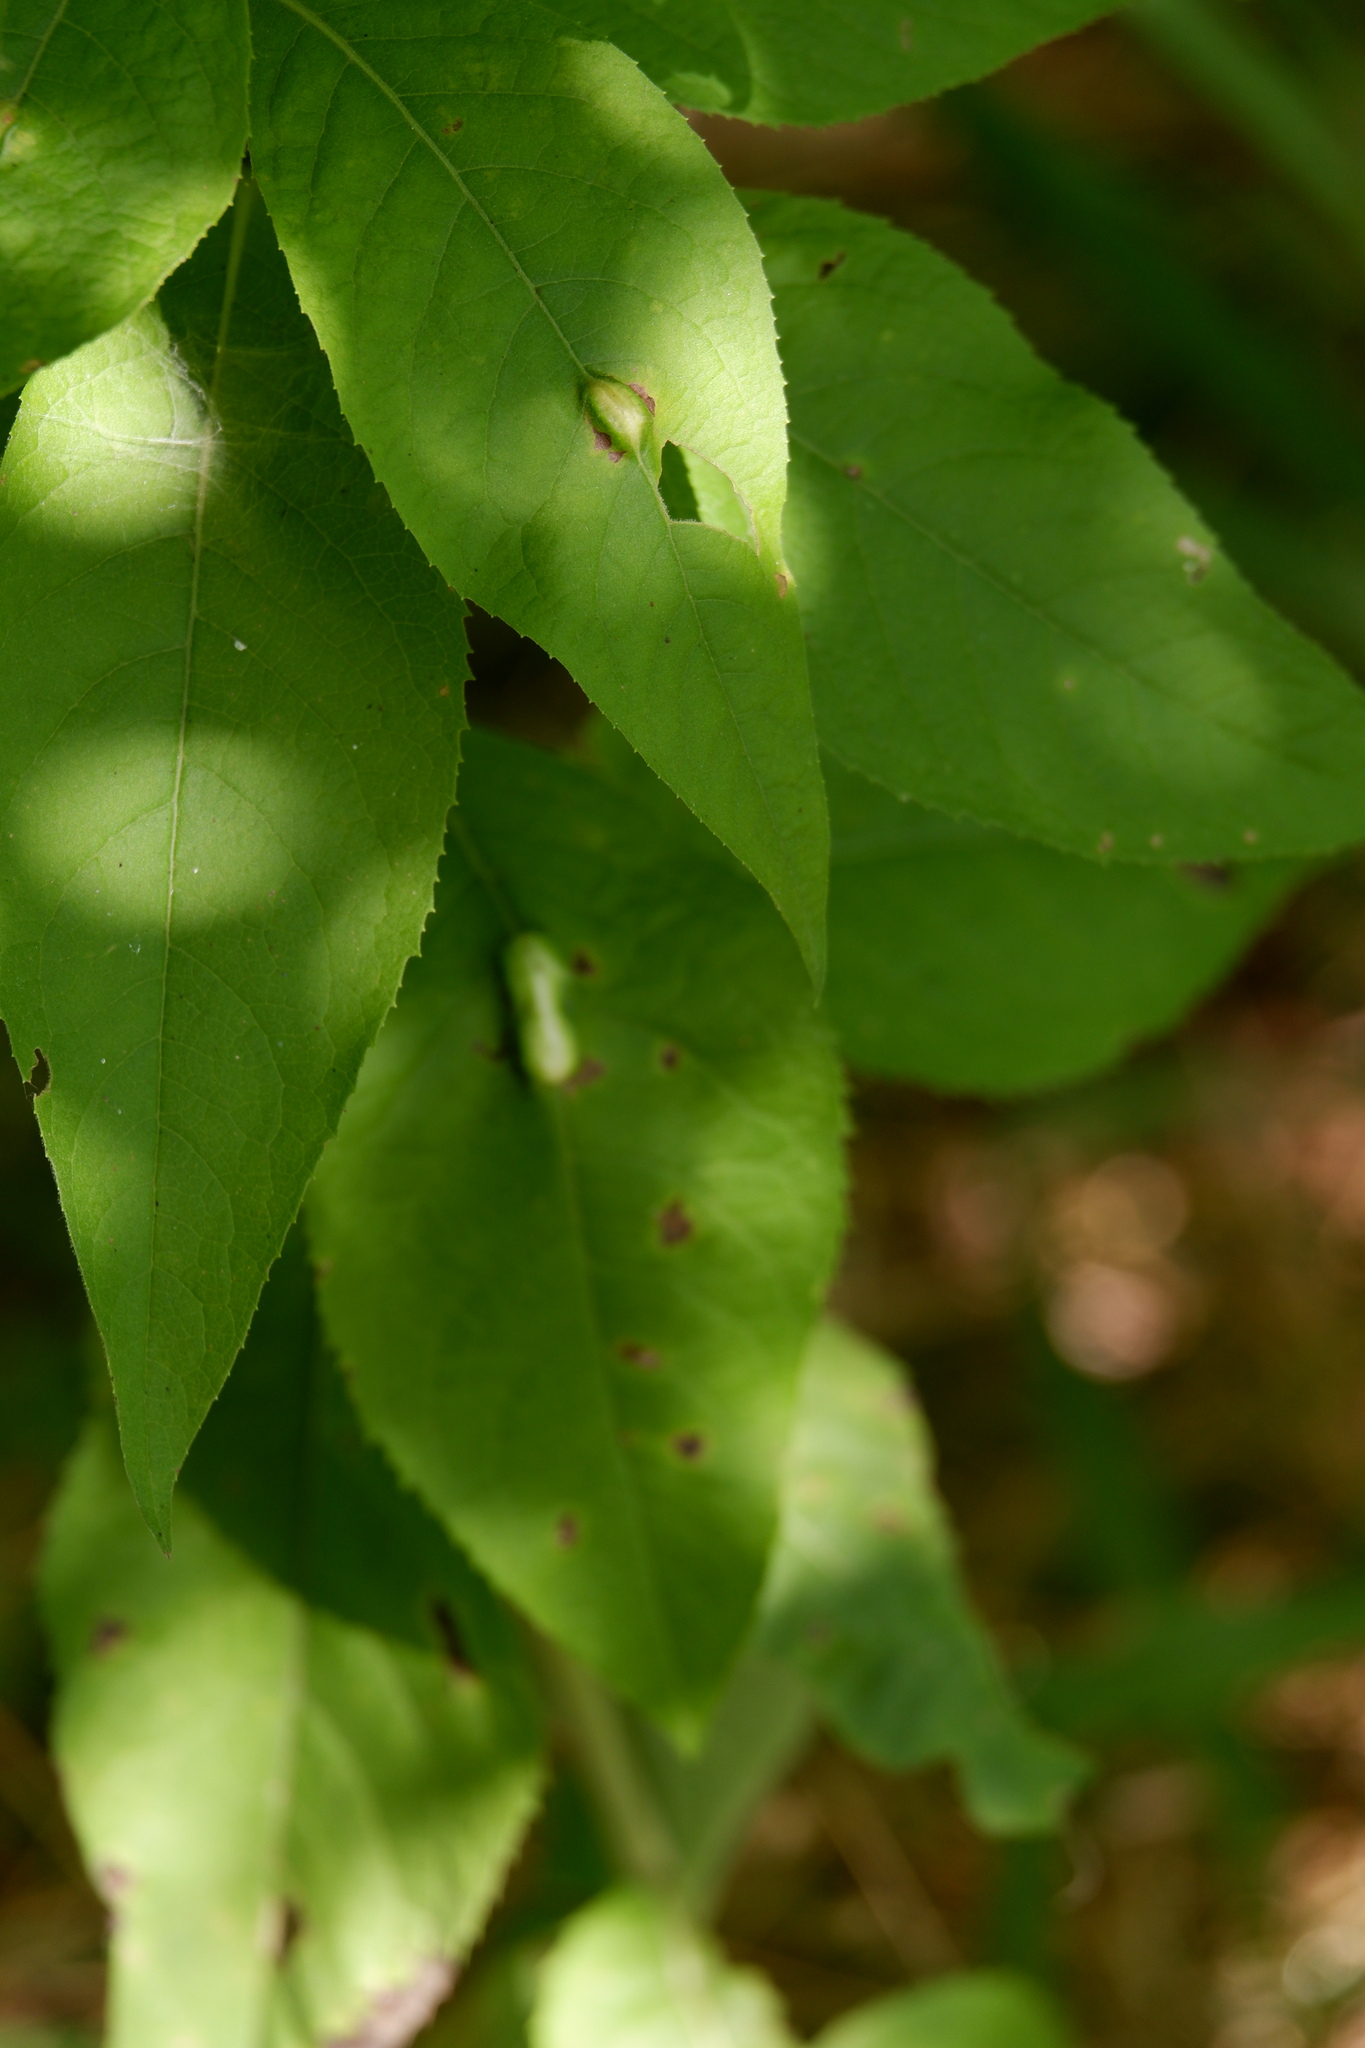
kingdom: Animalia
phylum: Arthropoda
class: Insecta
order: Diptera
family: Cecidomyiidae
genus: Neolasioptera
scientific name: Neolasioptera vernoniae
